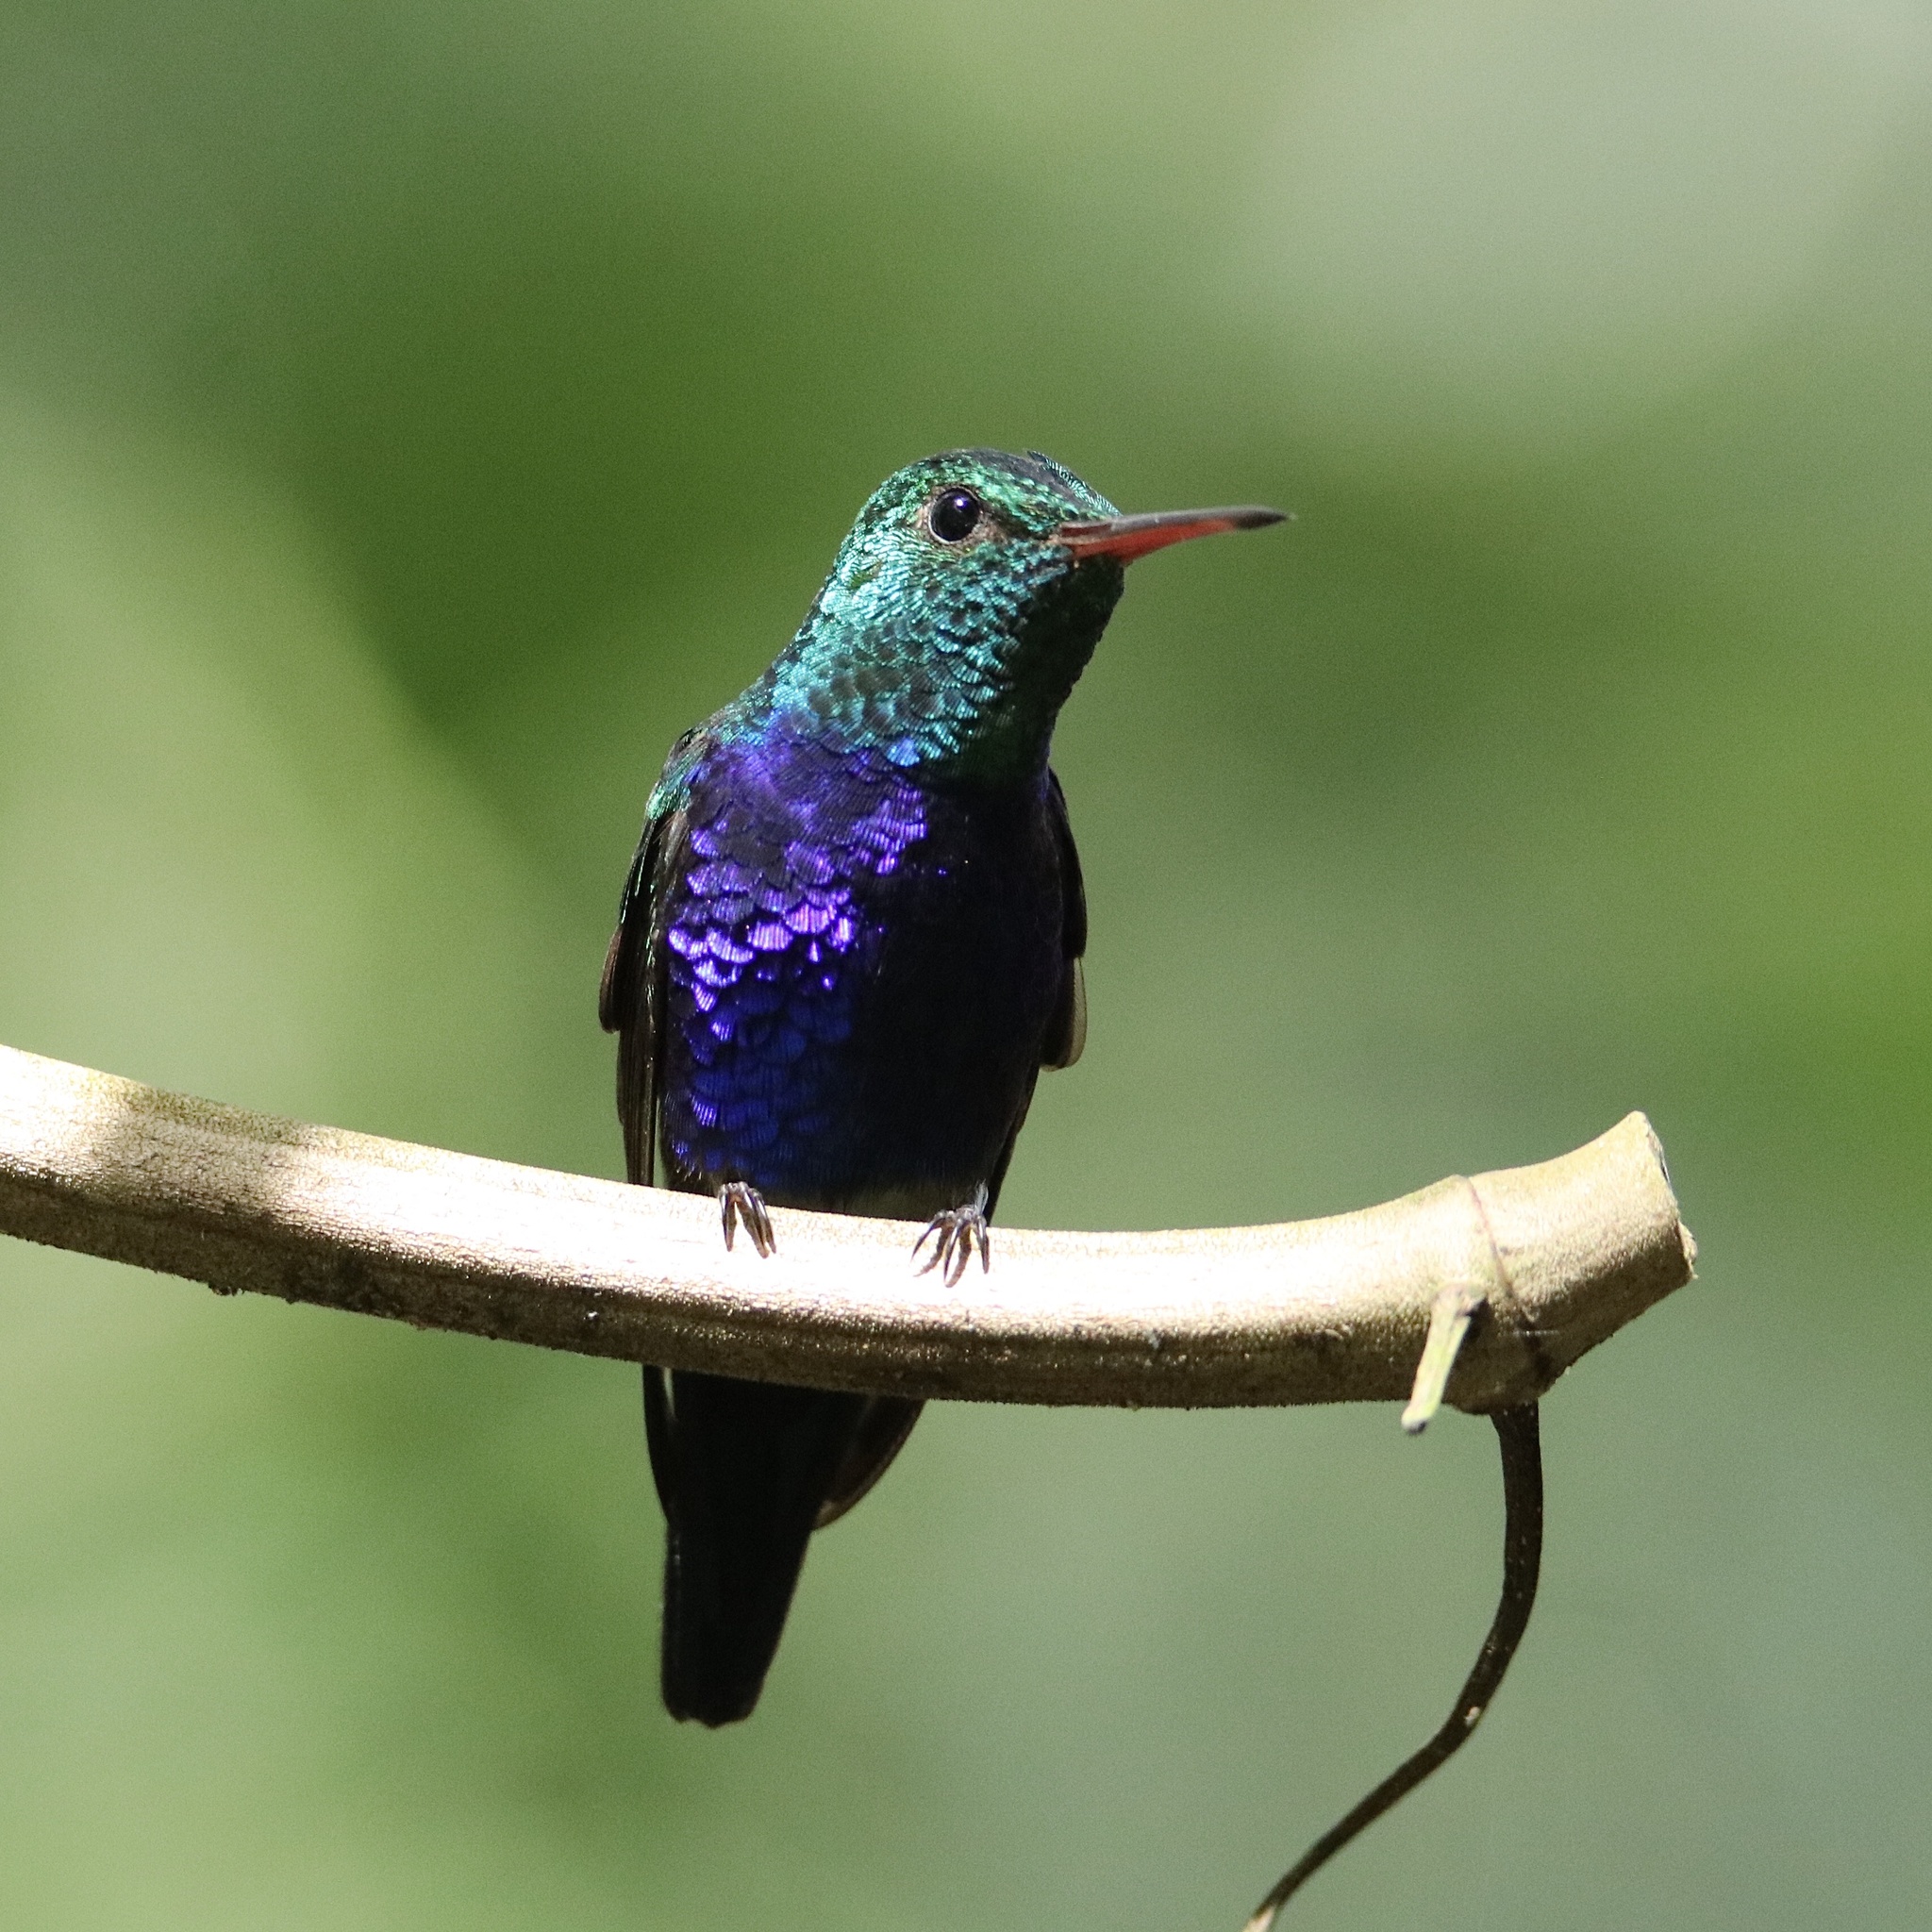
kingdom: Animalia
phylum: Chordata
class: Aves
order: Apodiformes
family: Trochilidae
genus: Chlorestes
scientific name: Chlorestes julie
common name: Violet-bellied hummingbird
